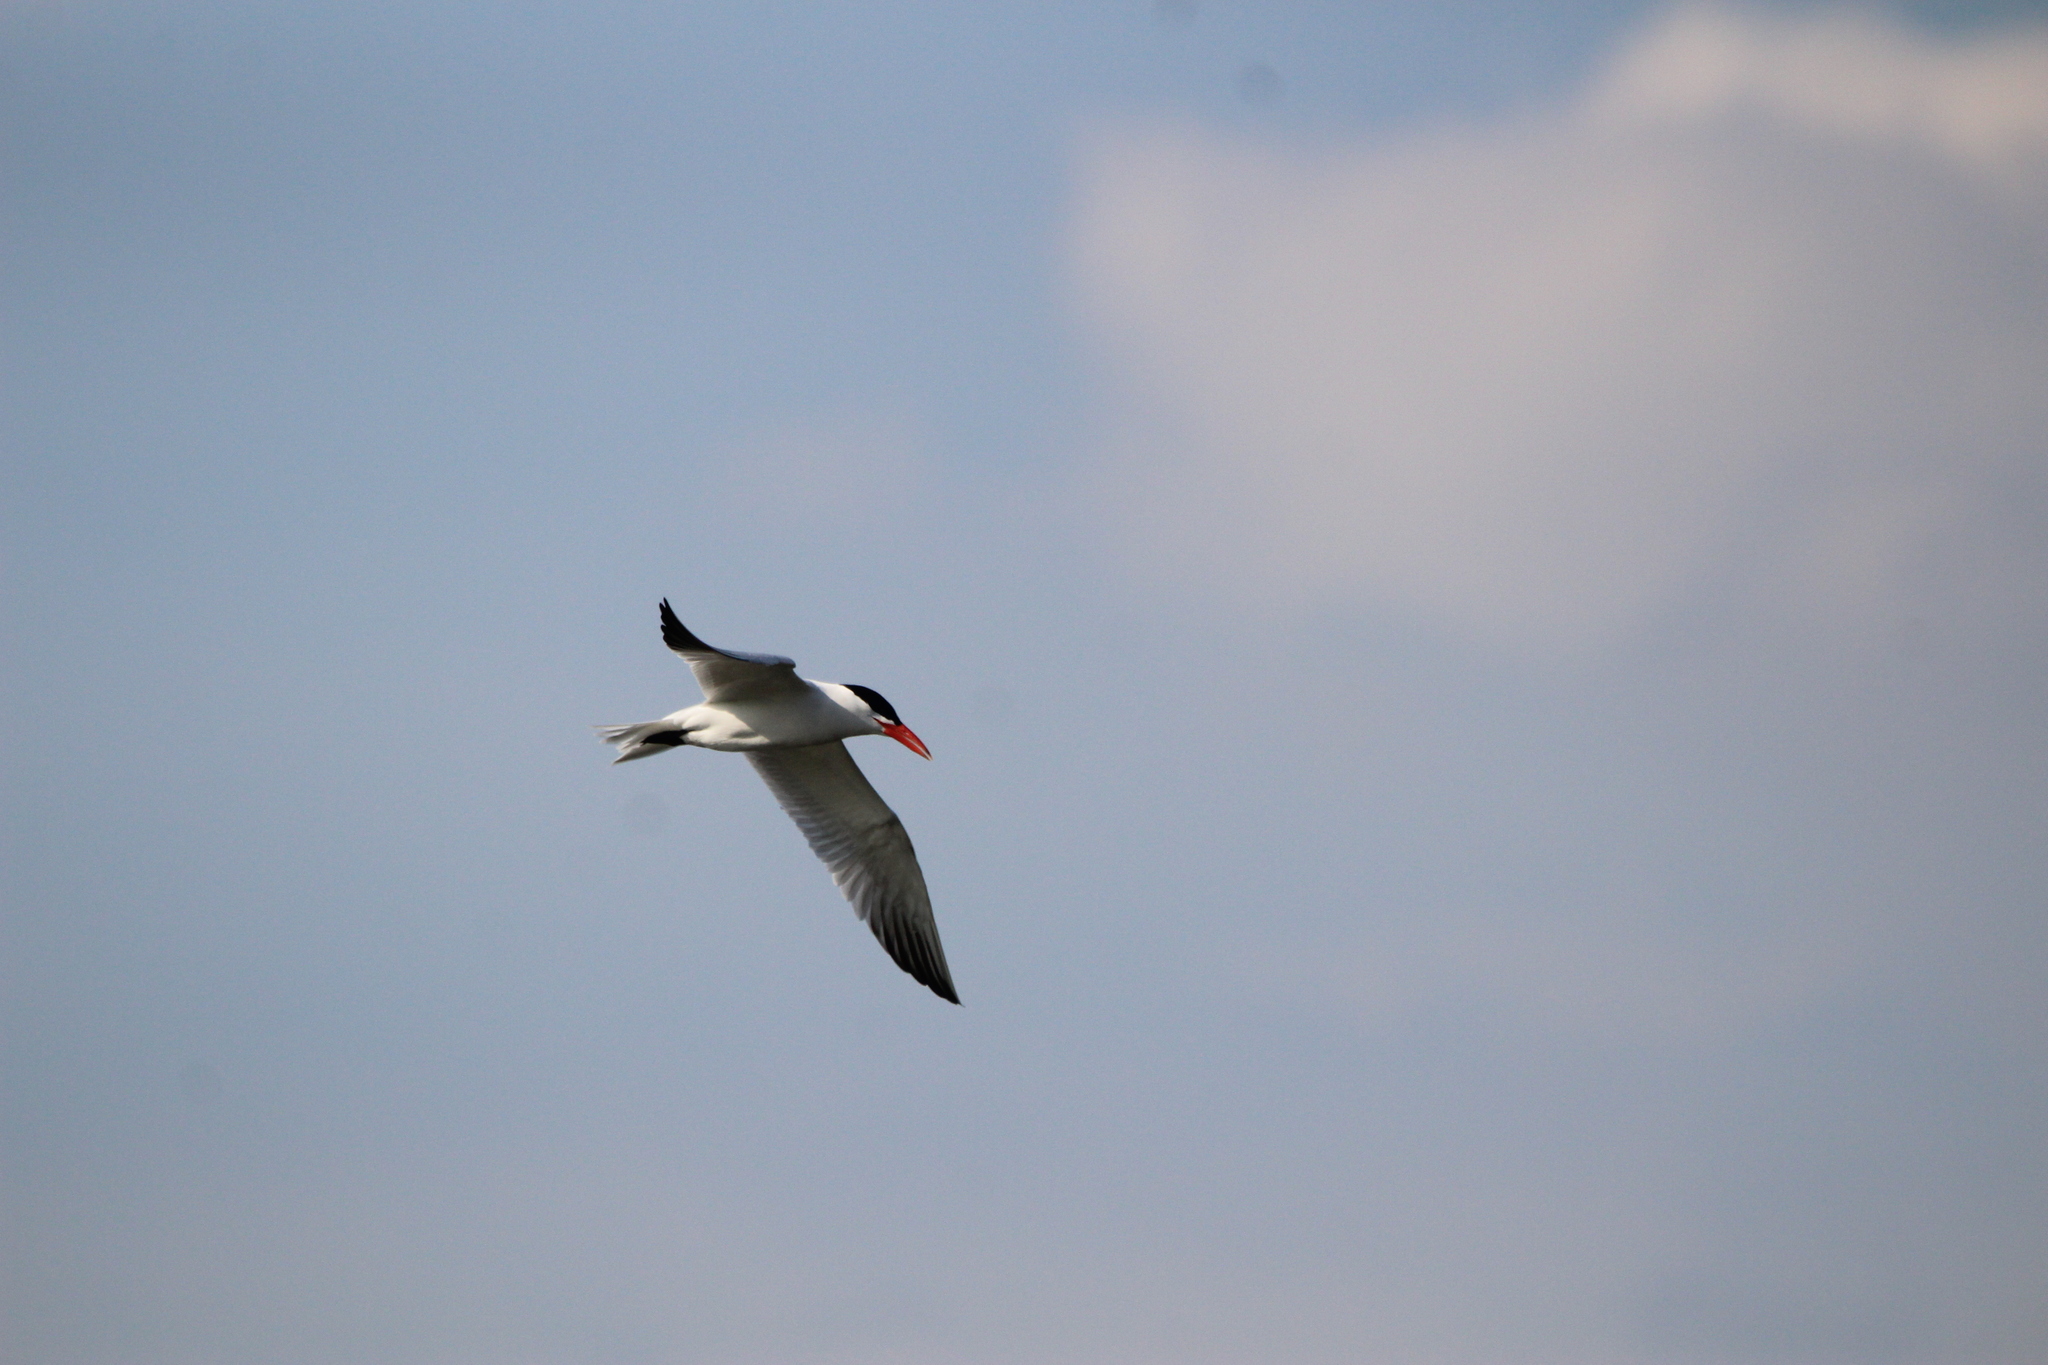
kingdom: Animalia
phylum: Chordata
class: Aves
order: Charadriiformes
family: Laridae
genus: Hydroprogne
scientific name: Hydroprogne caspia
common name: Caspian tern
